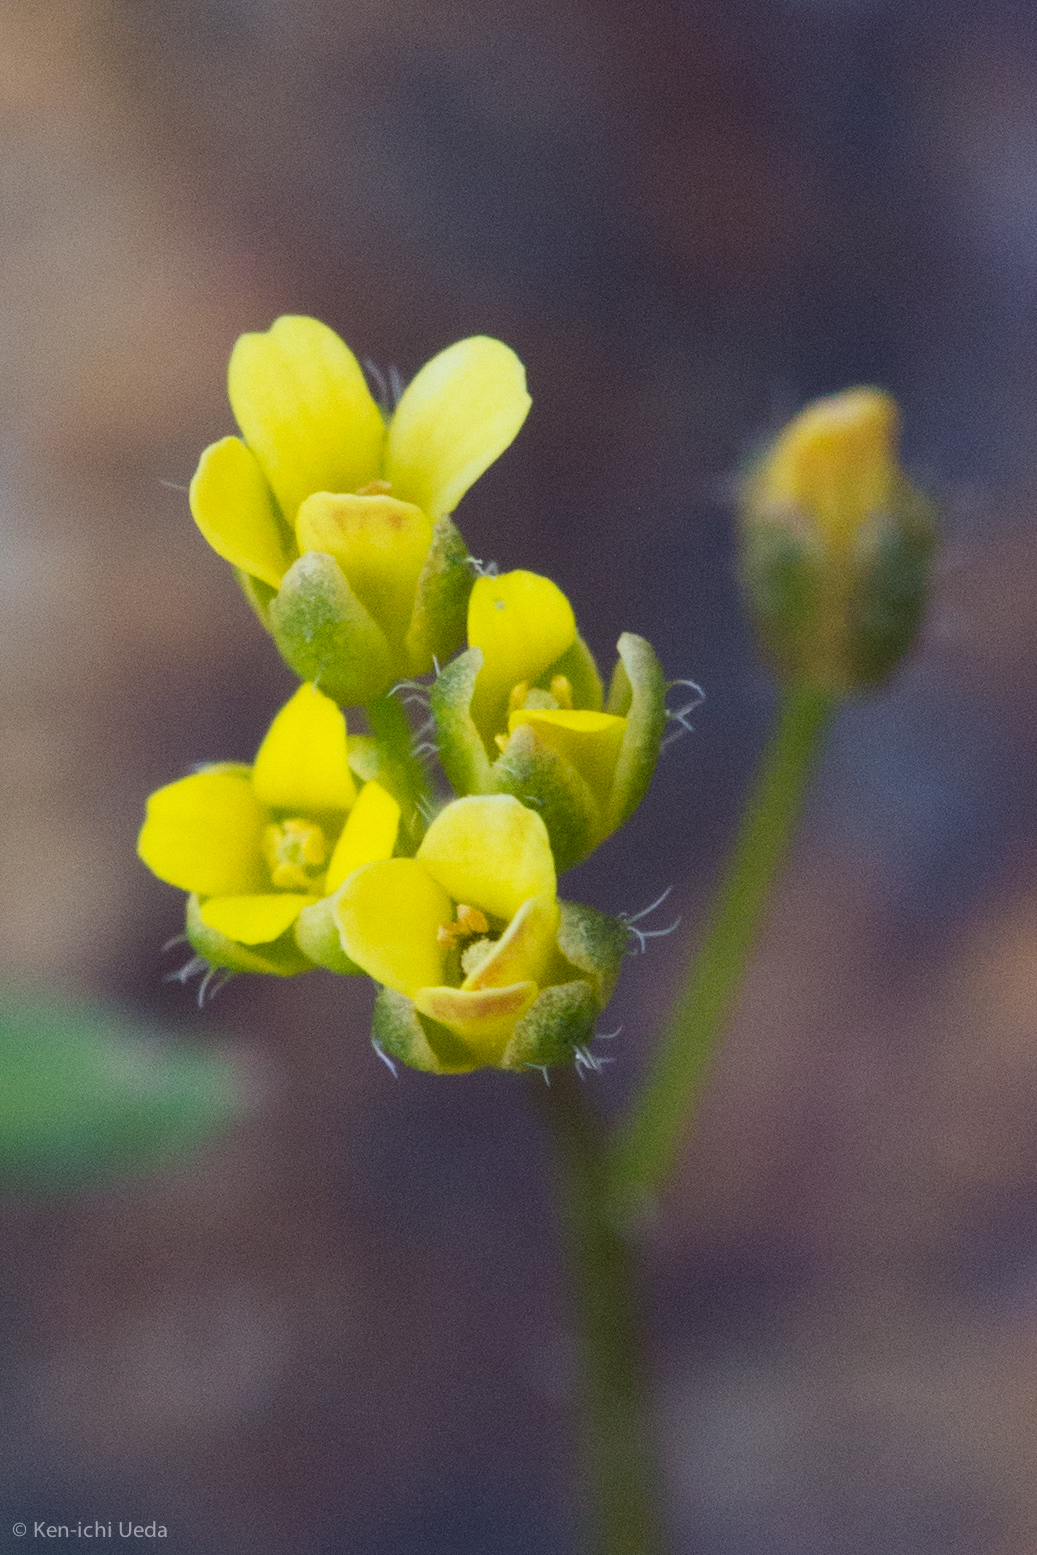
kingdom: Plantae
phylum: Tracheophyta
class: Magnoliopsida
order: Brassicales
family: Brassicaceae
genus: Draba
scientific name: Draba albertina
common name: Slender draba
